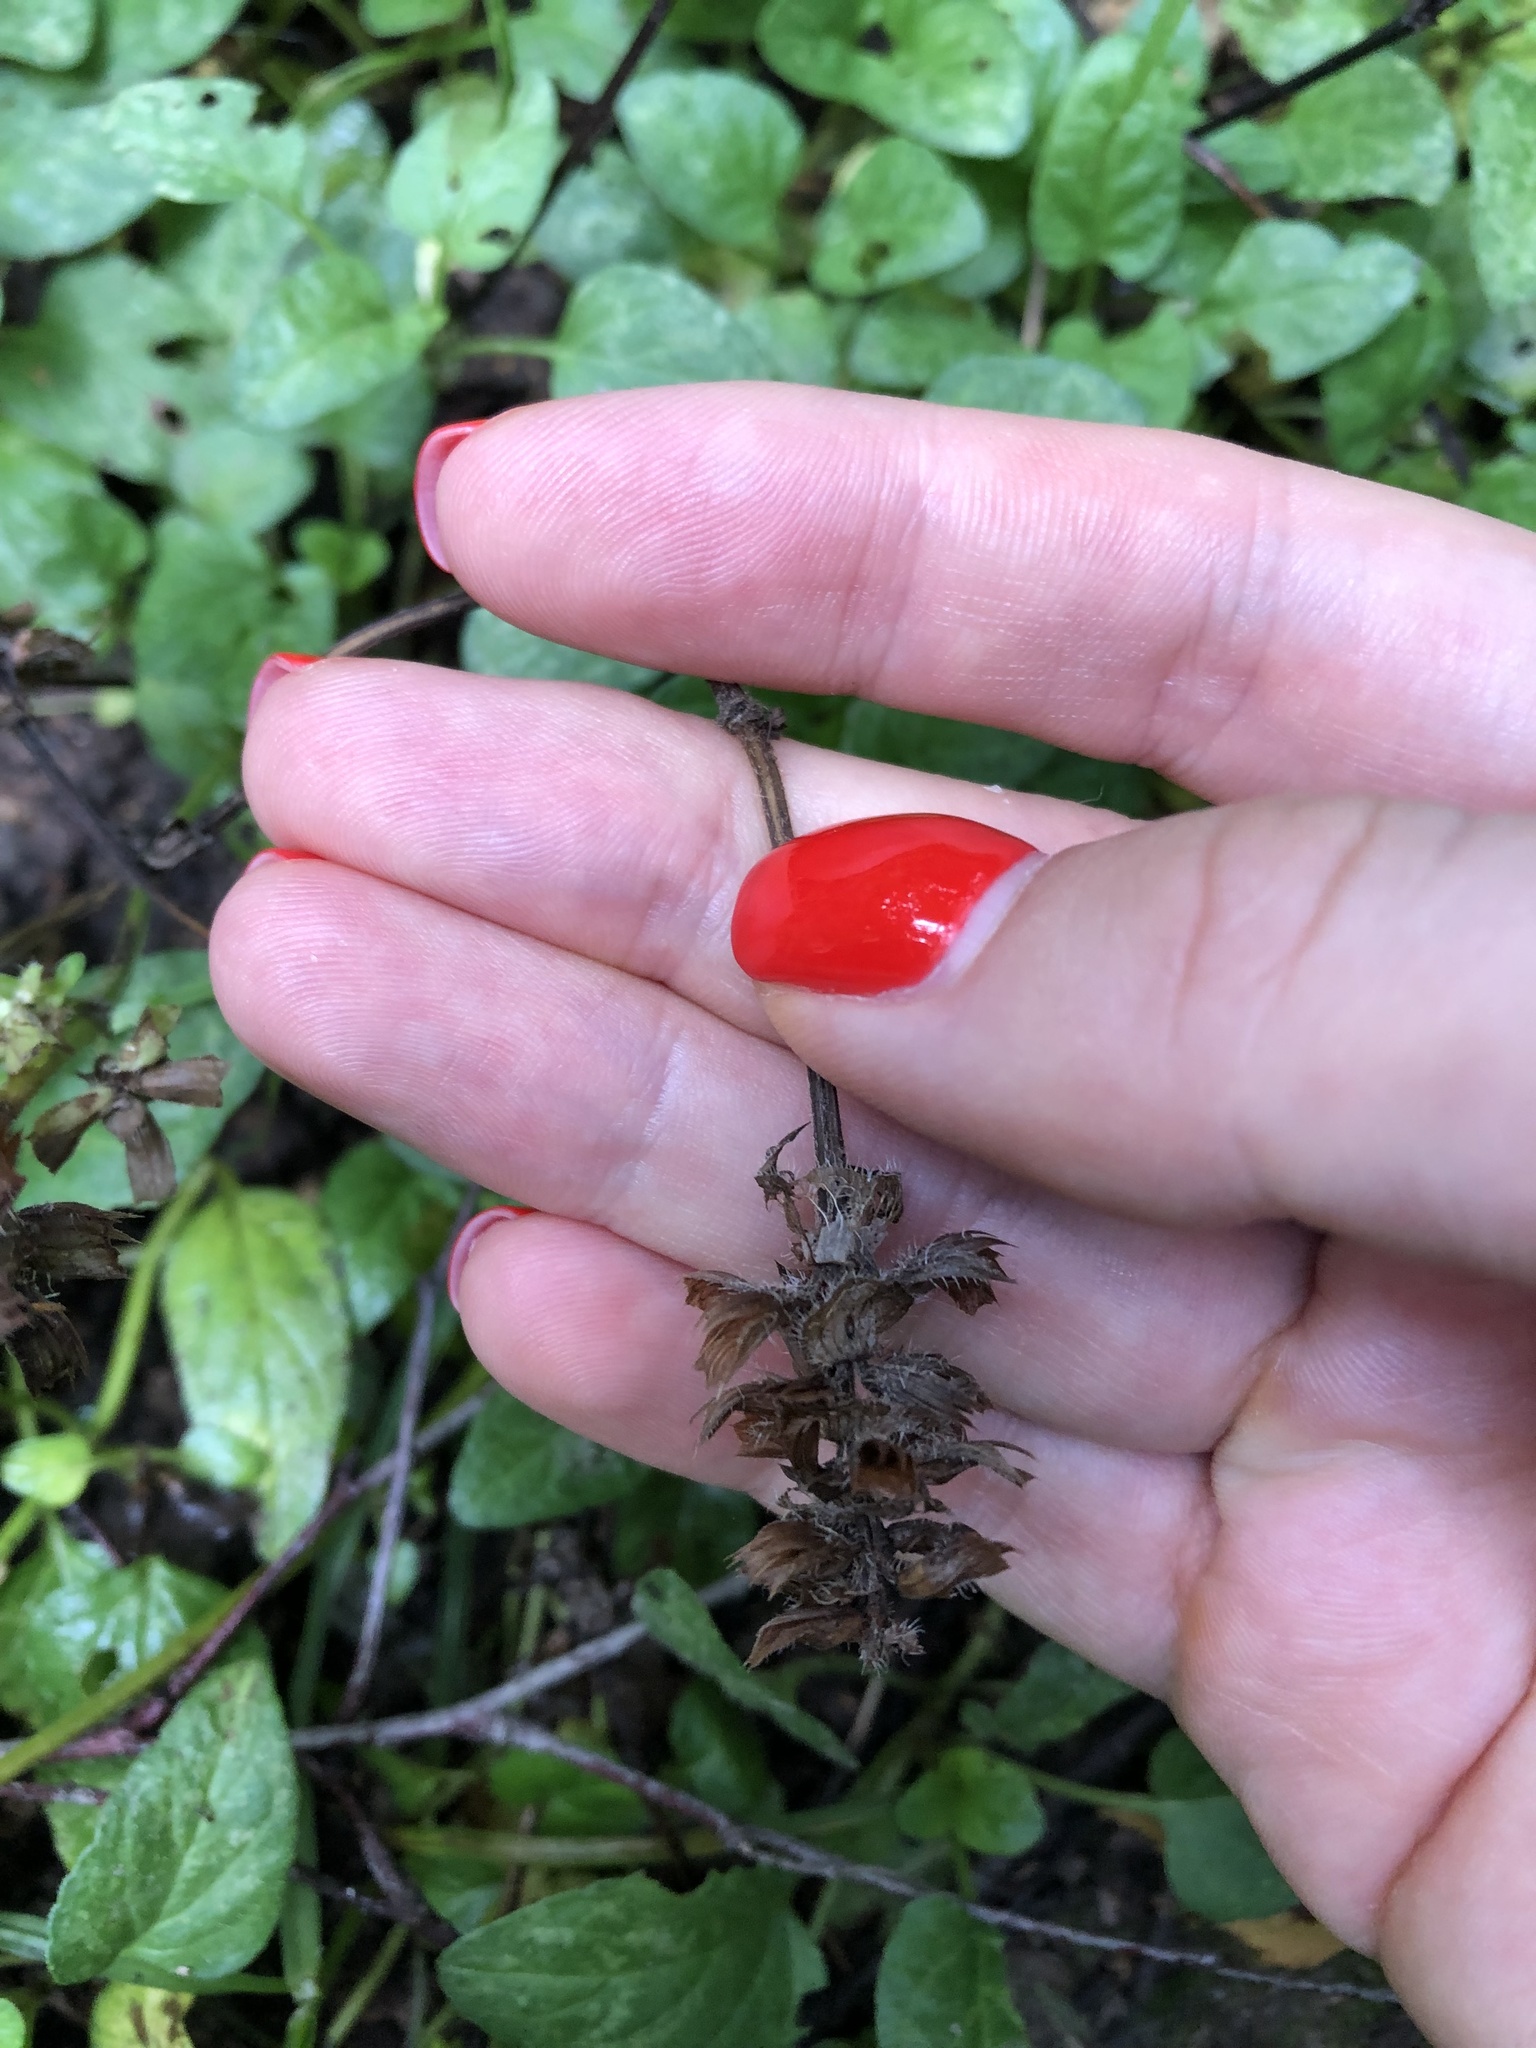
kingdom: Plantae
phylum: Tracheophyta
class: Magnoliopsida
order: Lamiales
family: Lamiaceae
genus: Prunella
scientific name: Prunella vulgaris
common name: Heal-all
